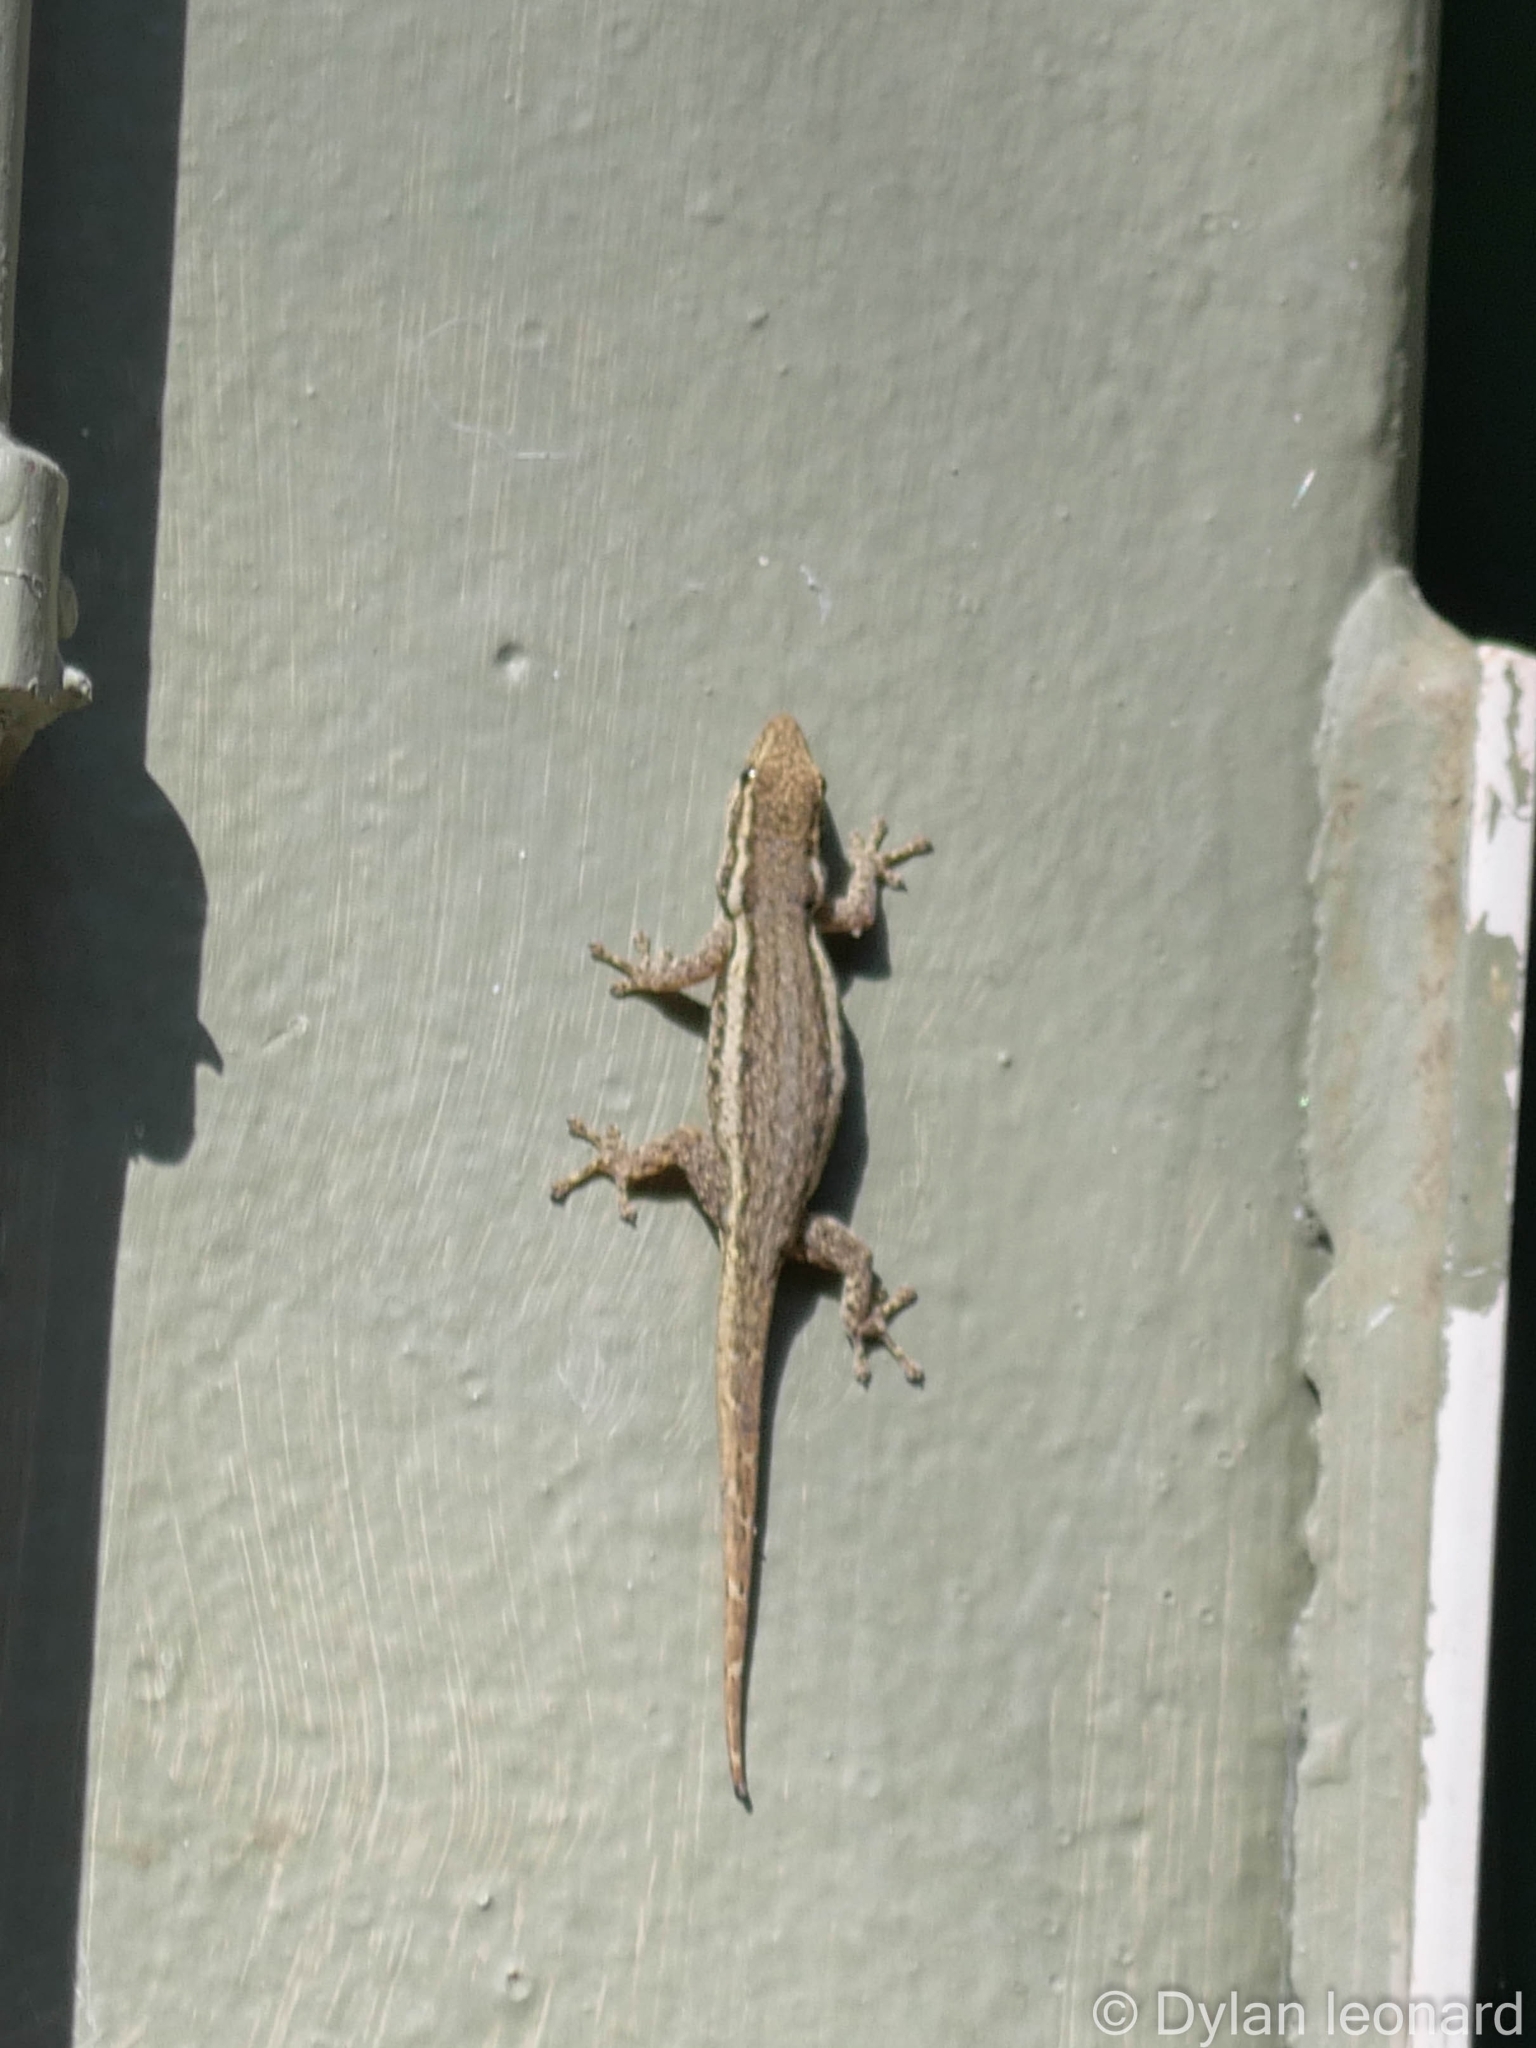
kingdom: Animalia
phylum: Chordata
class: Squamata
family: Gekkonidae
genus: Lygodactylus
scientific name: Lygodactylus capensis
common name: Cape dwarf gecko
